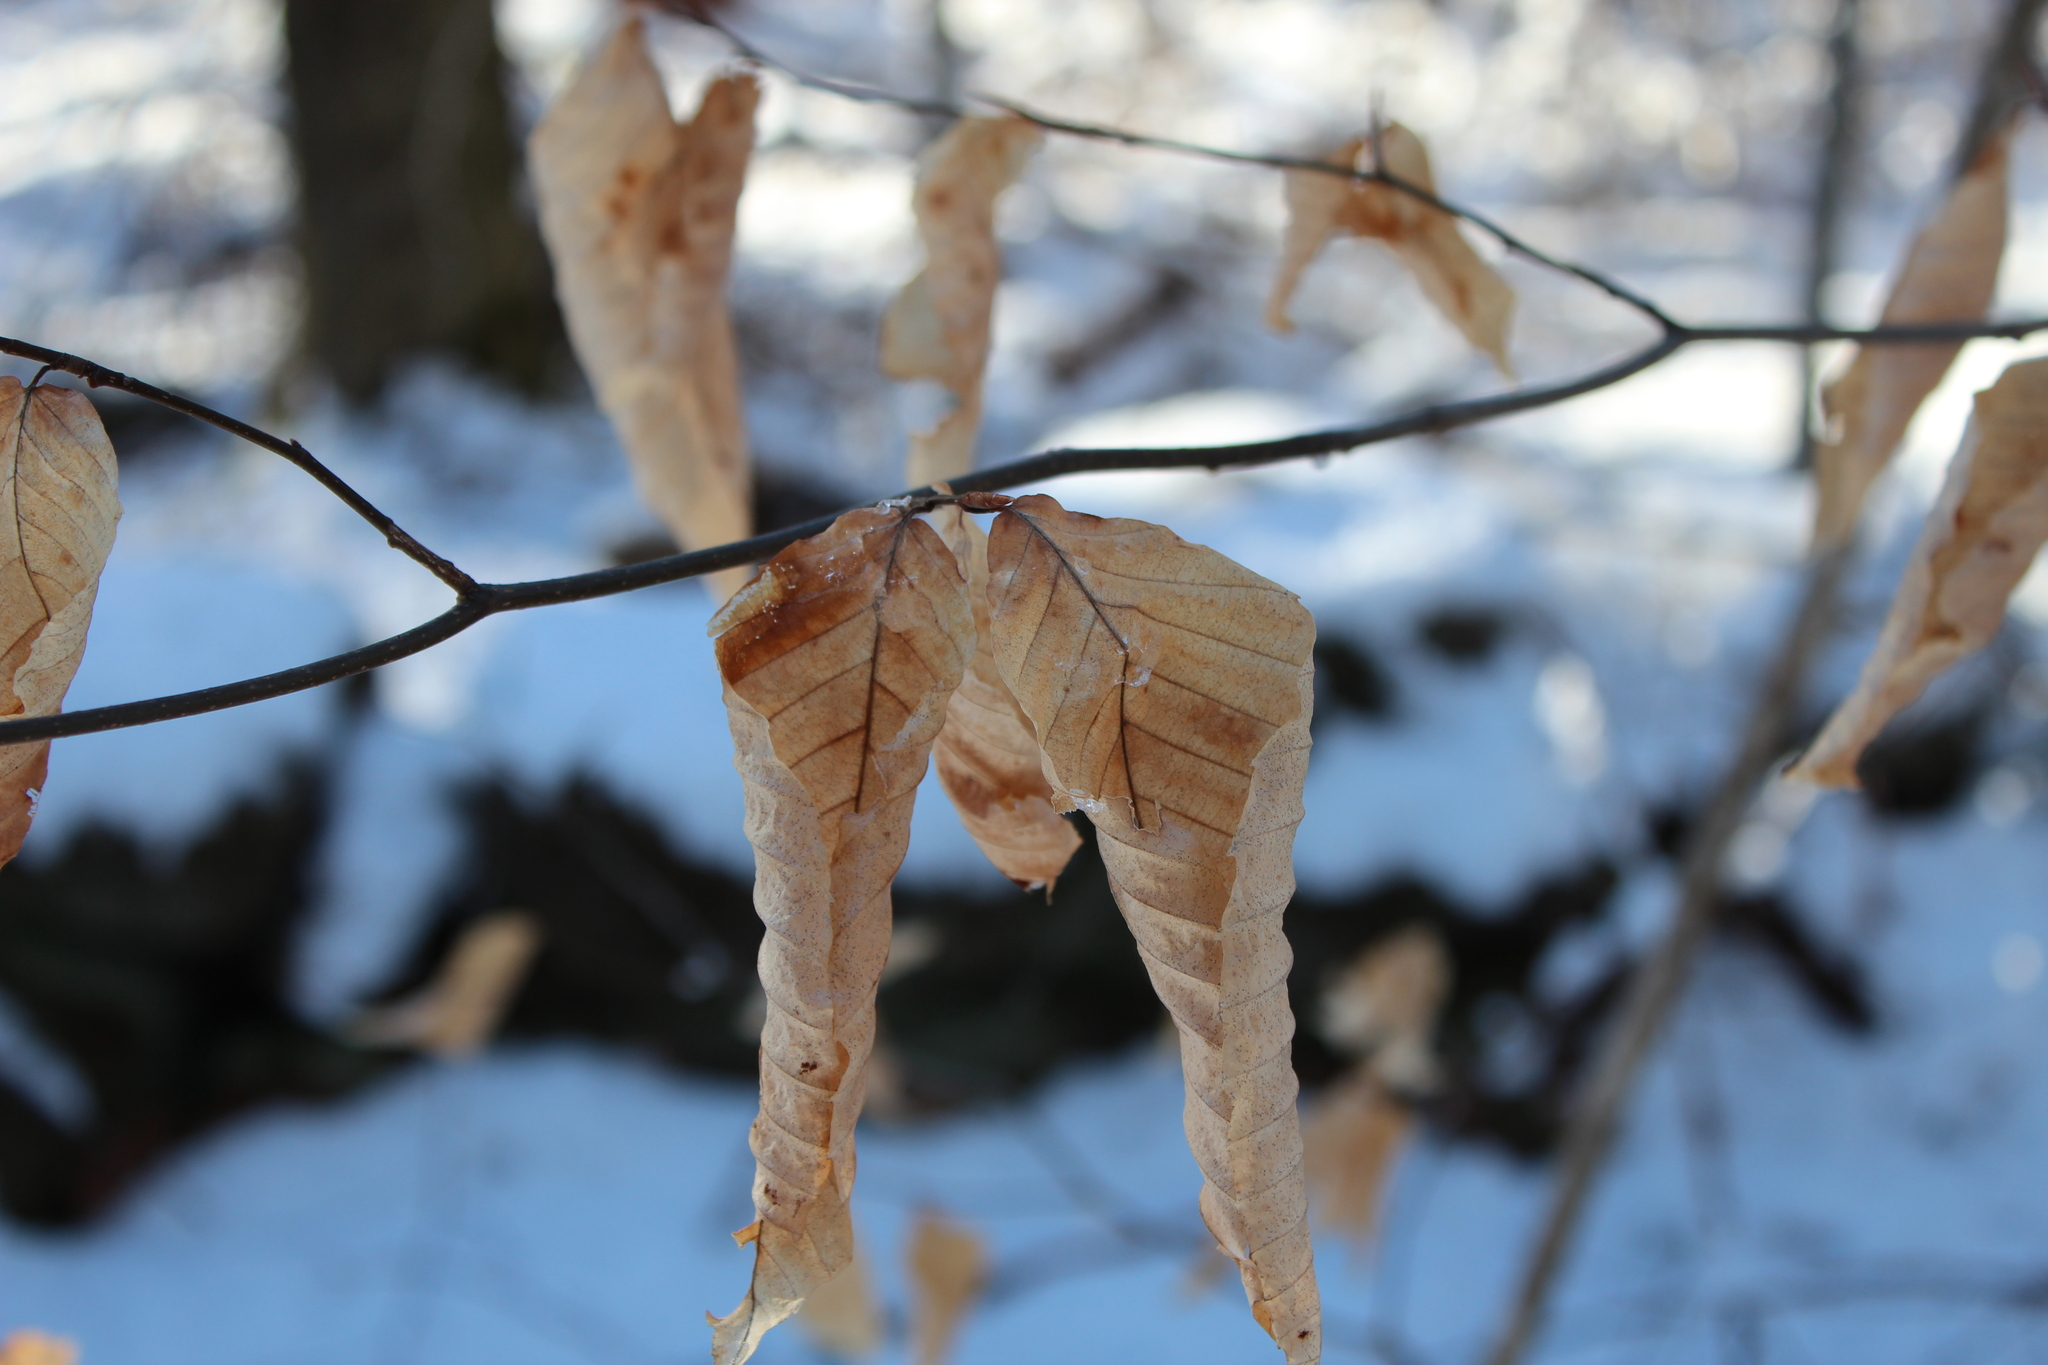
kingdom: Plantae
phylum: Tracheophyta
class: Magnoliopsida
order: Fagales
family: Fagaceae
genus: Fagus
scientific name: Fagus grandifolia
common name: American beech
